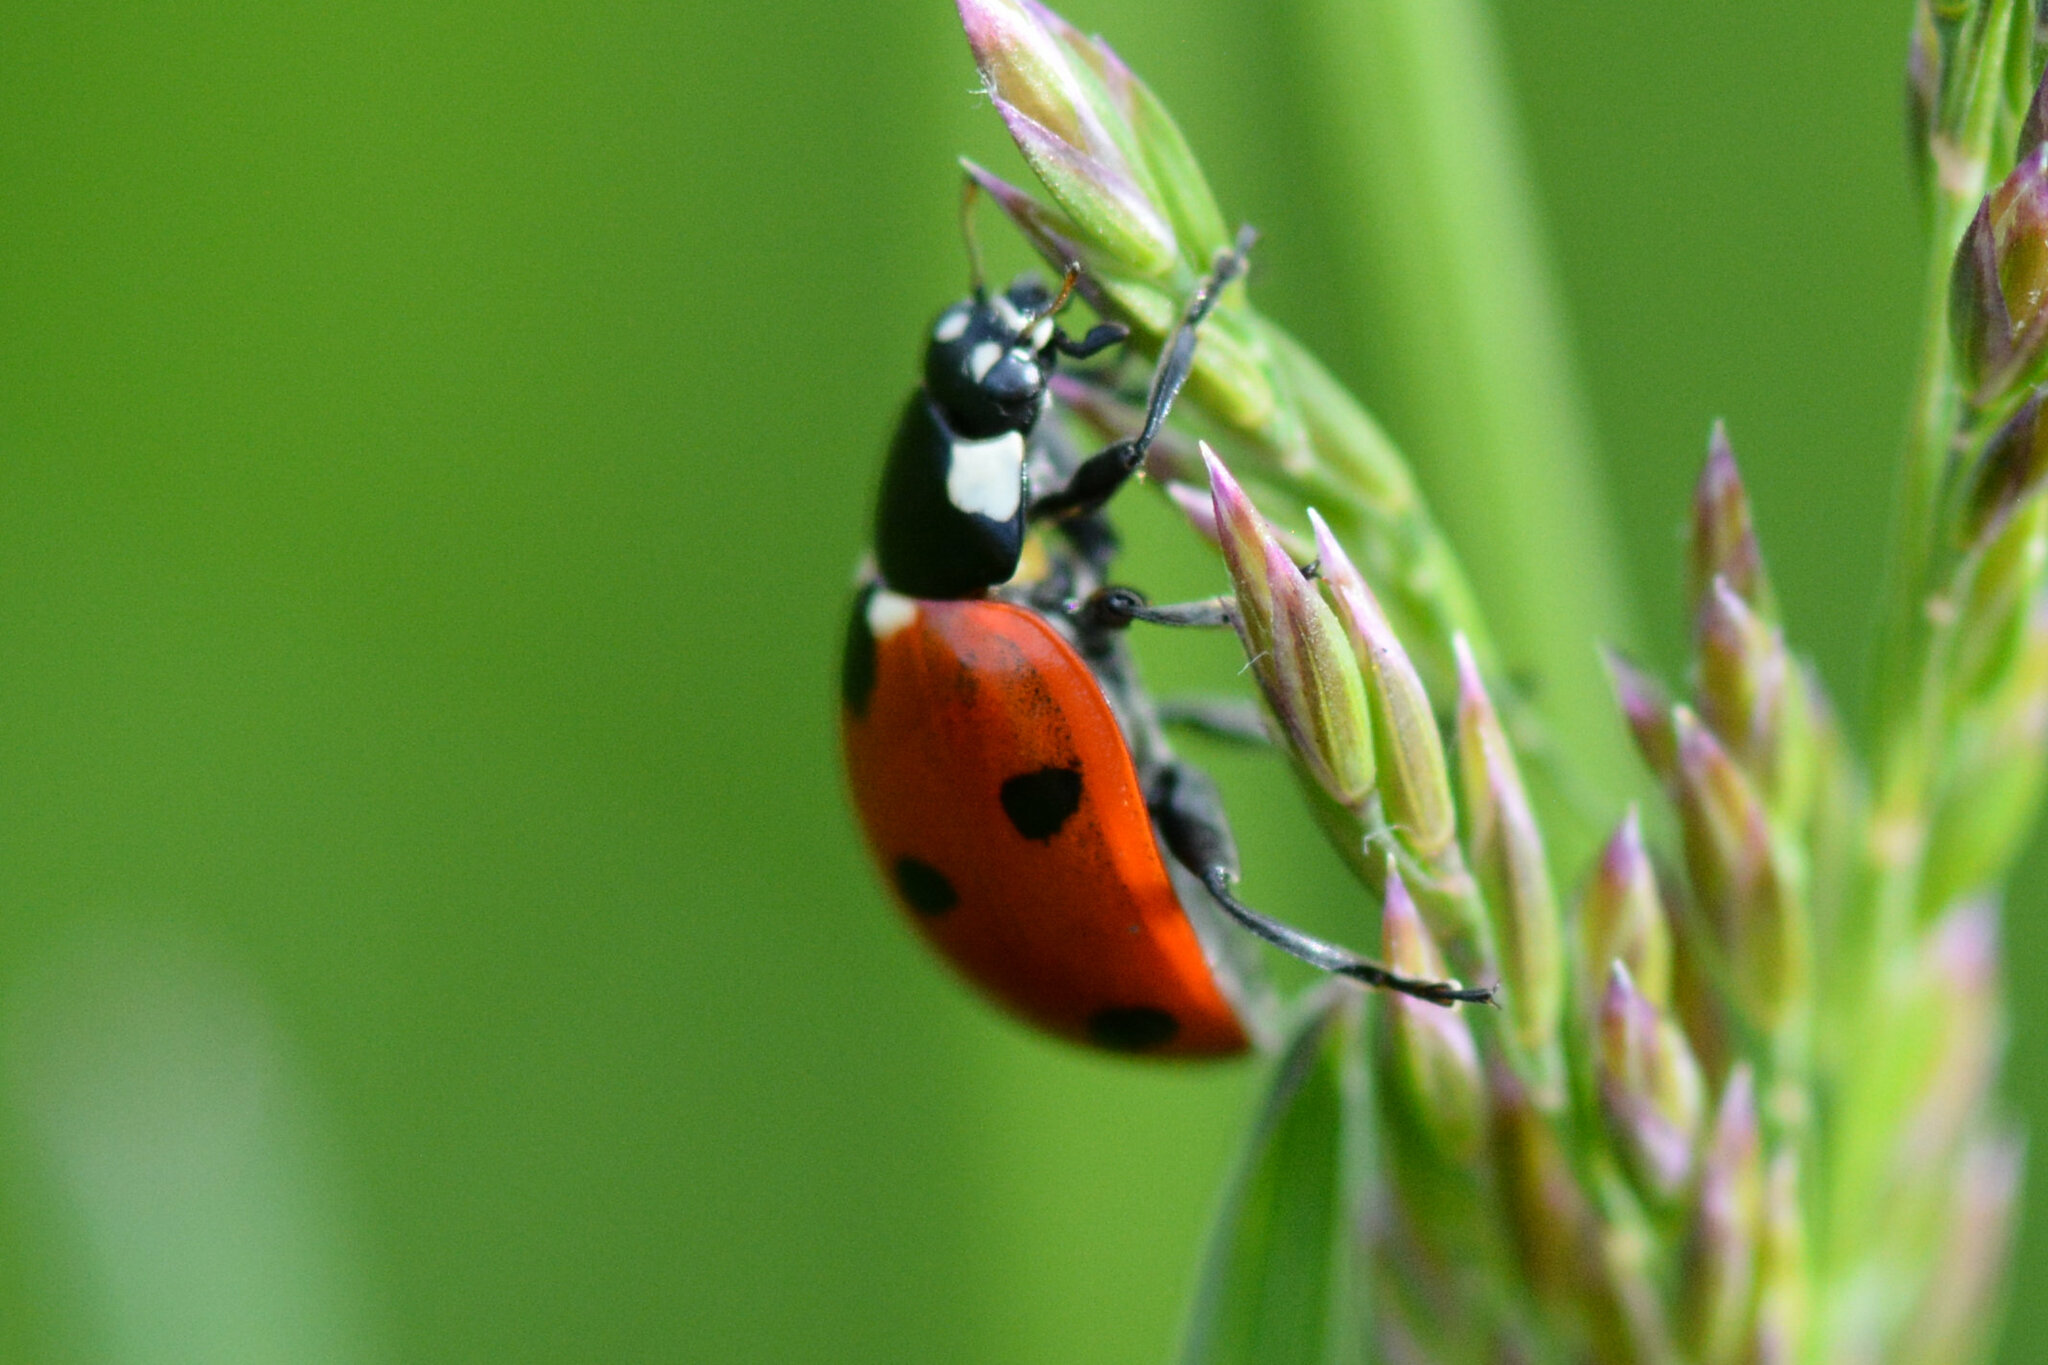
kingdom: Animalia
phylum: Arthropoda
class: Insecta
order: Coleoptera
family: Coccinellidae
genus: Coccinella
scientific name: Coccinella septempunctata
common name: Sevenspotted lady beetle
